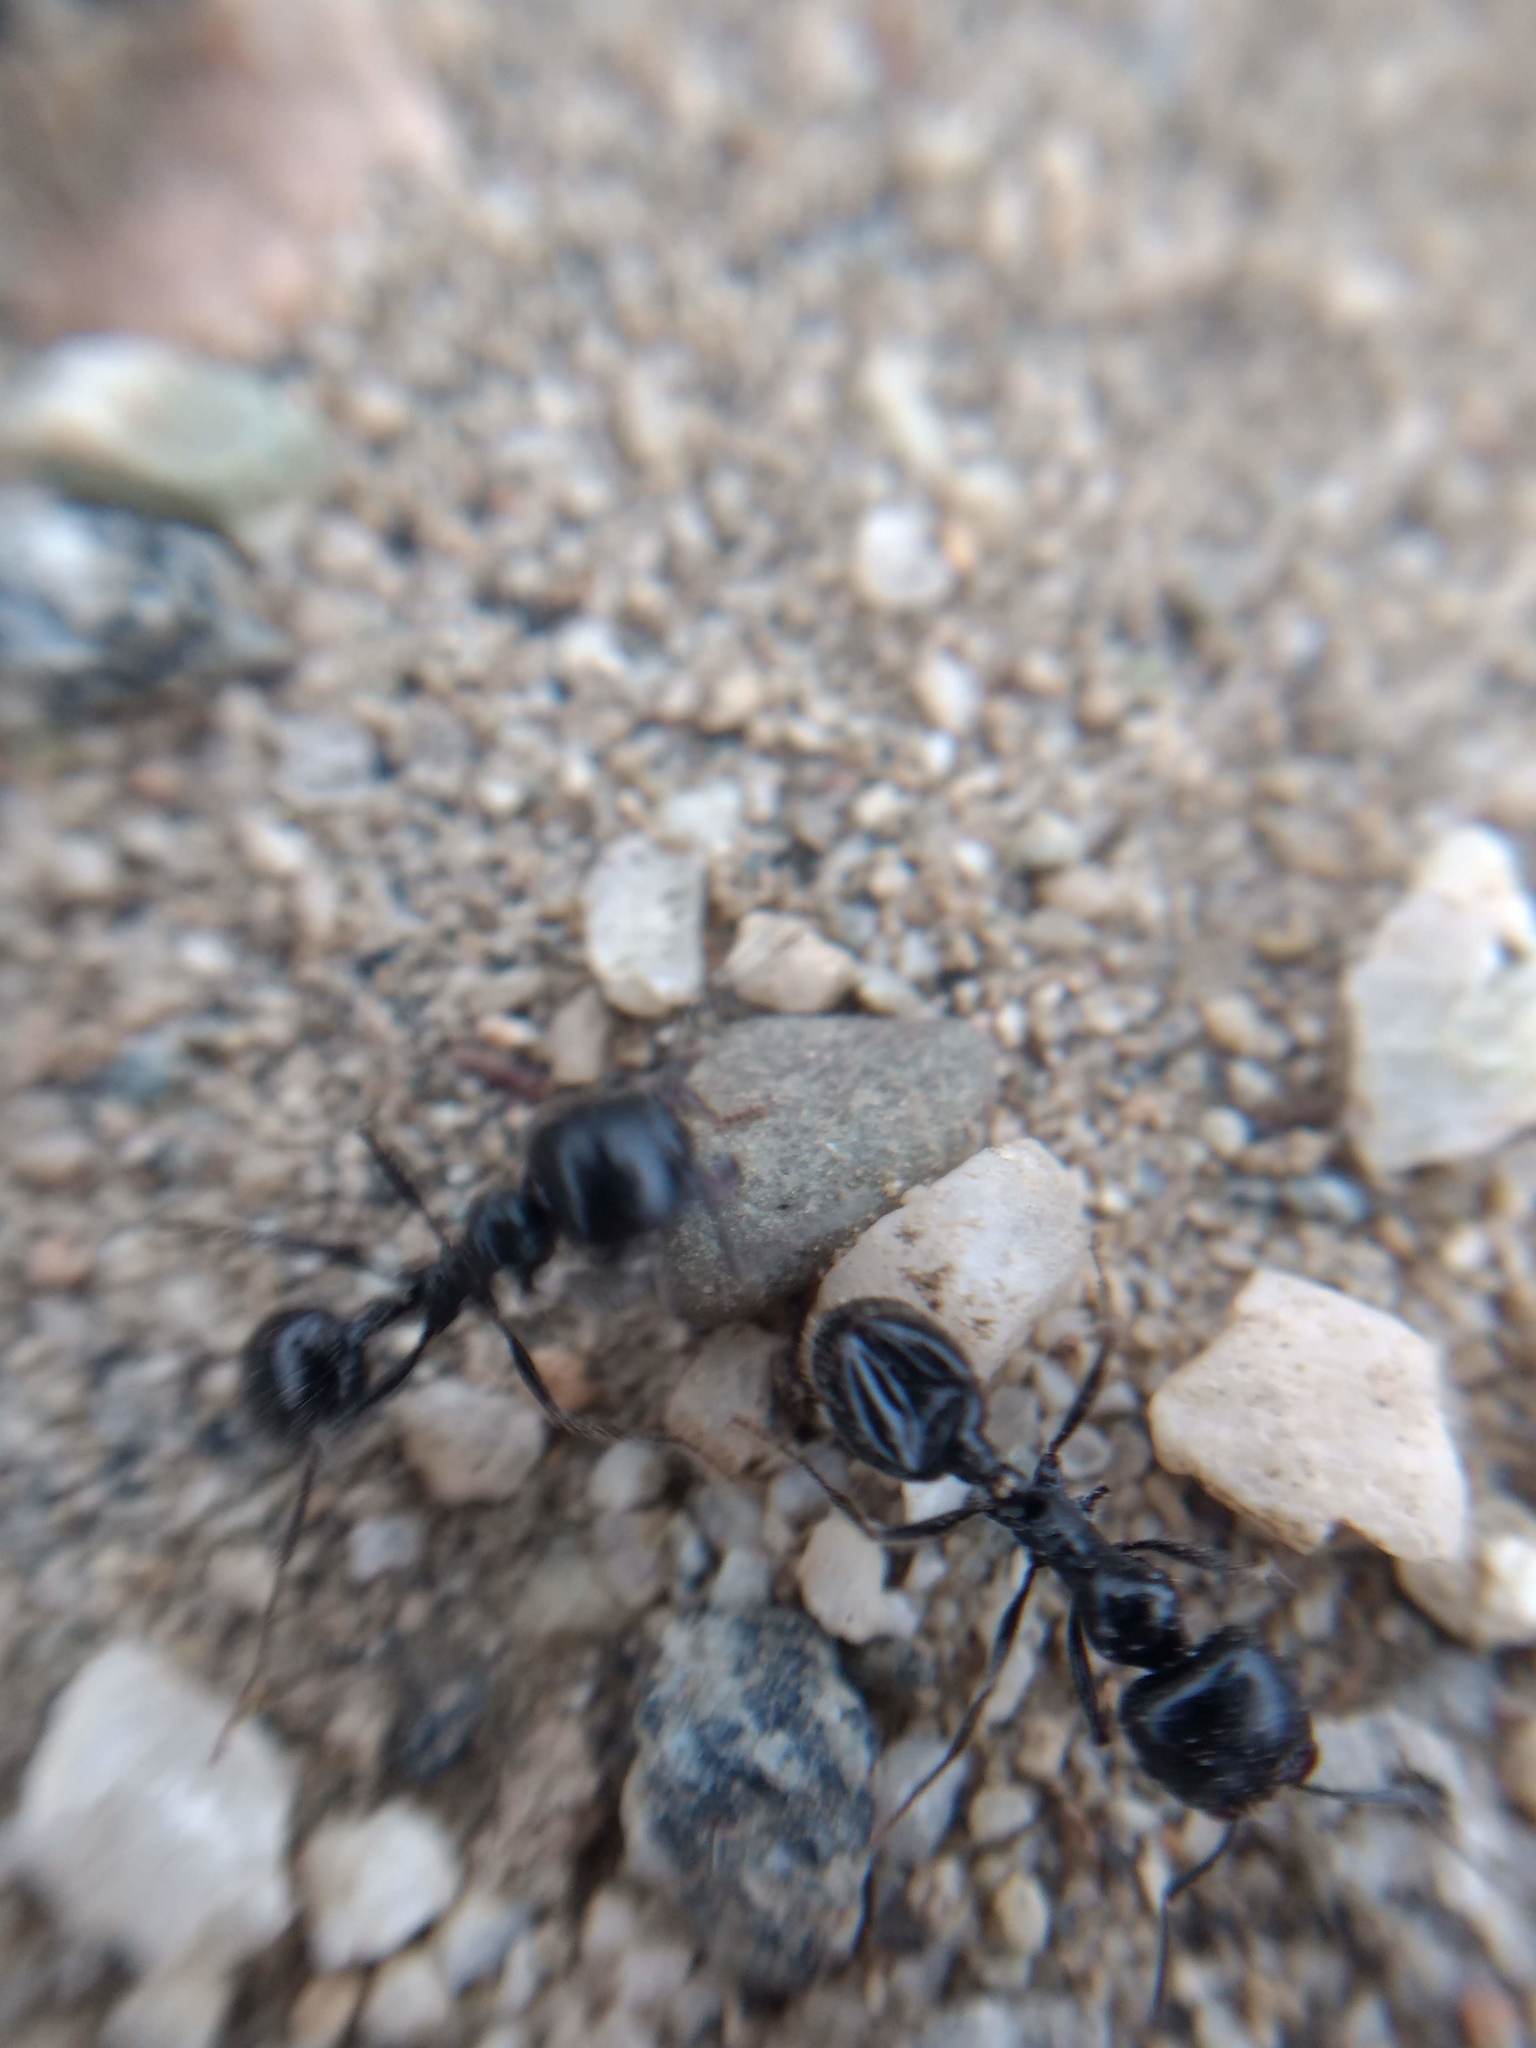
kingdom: Animalia
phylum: Arthropoda
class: Insecta
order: Hymenoptera
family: Formicidae
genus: Messor
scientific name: Messor pergandei
